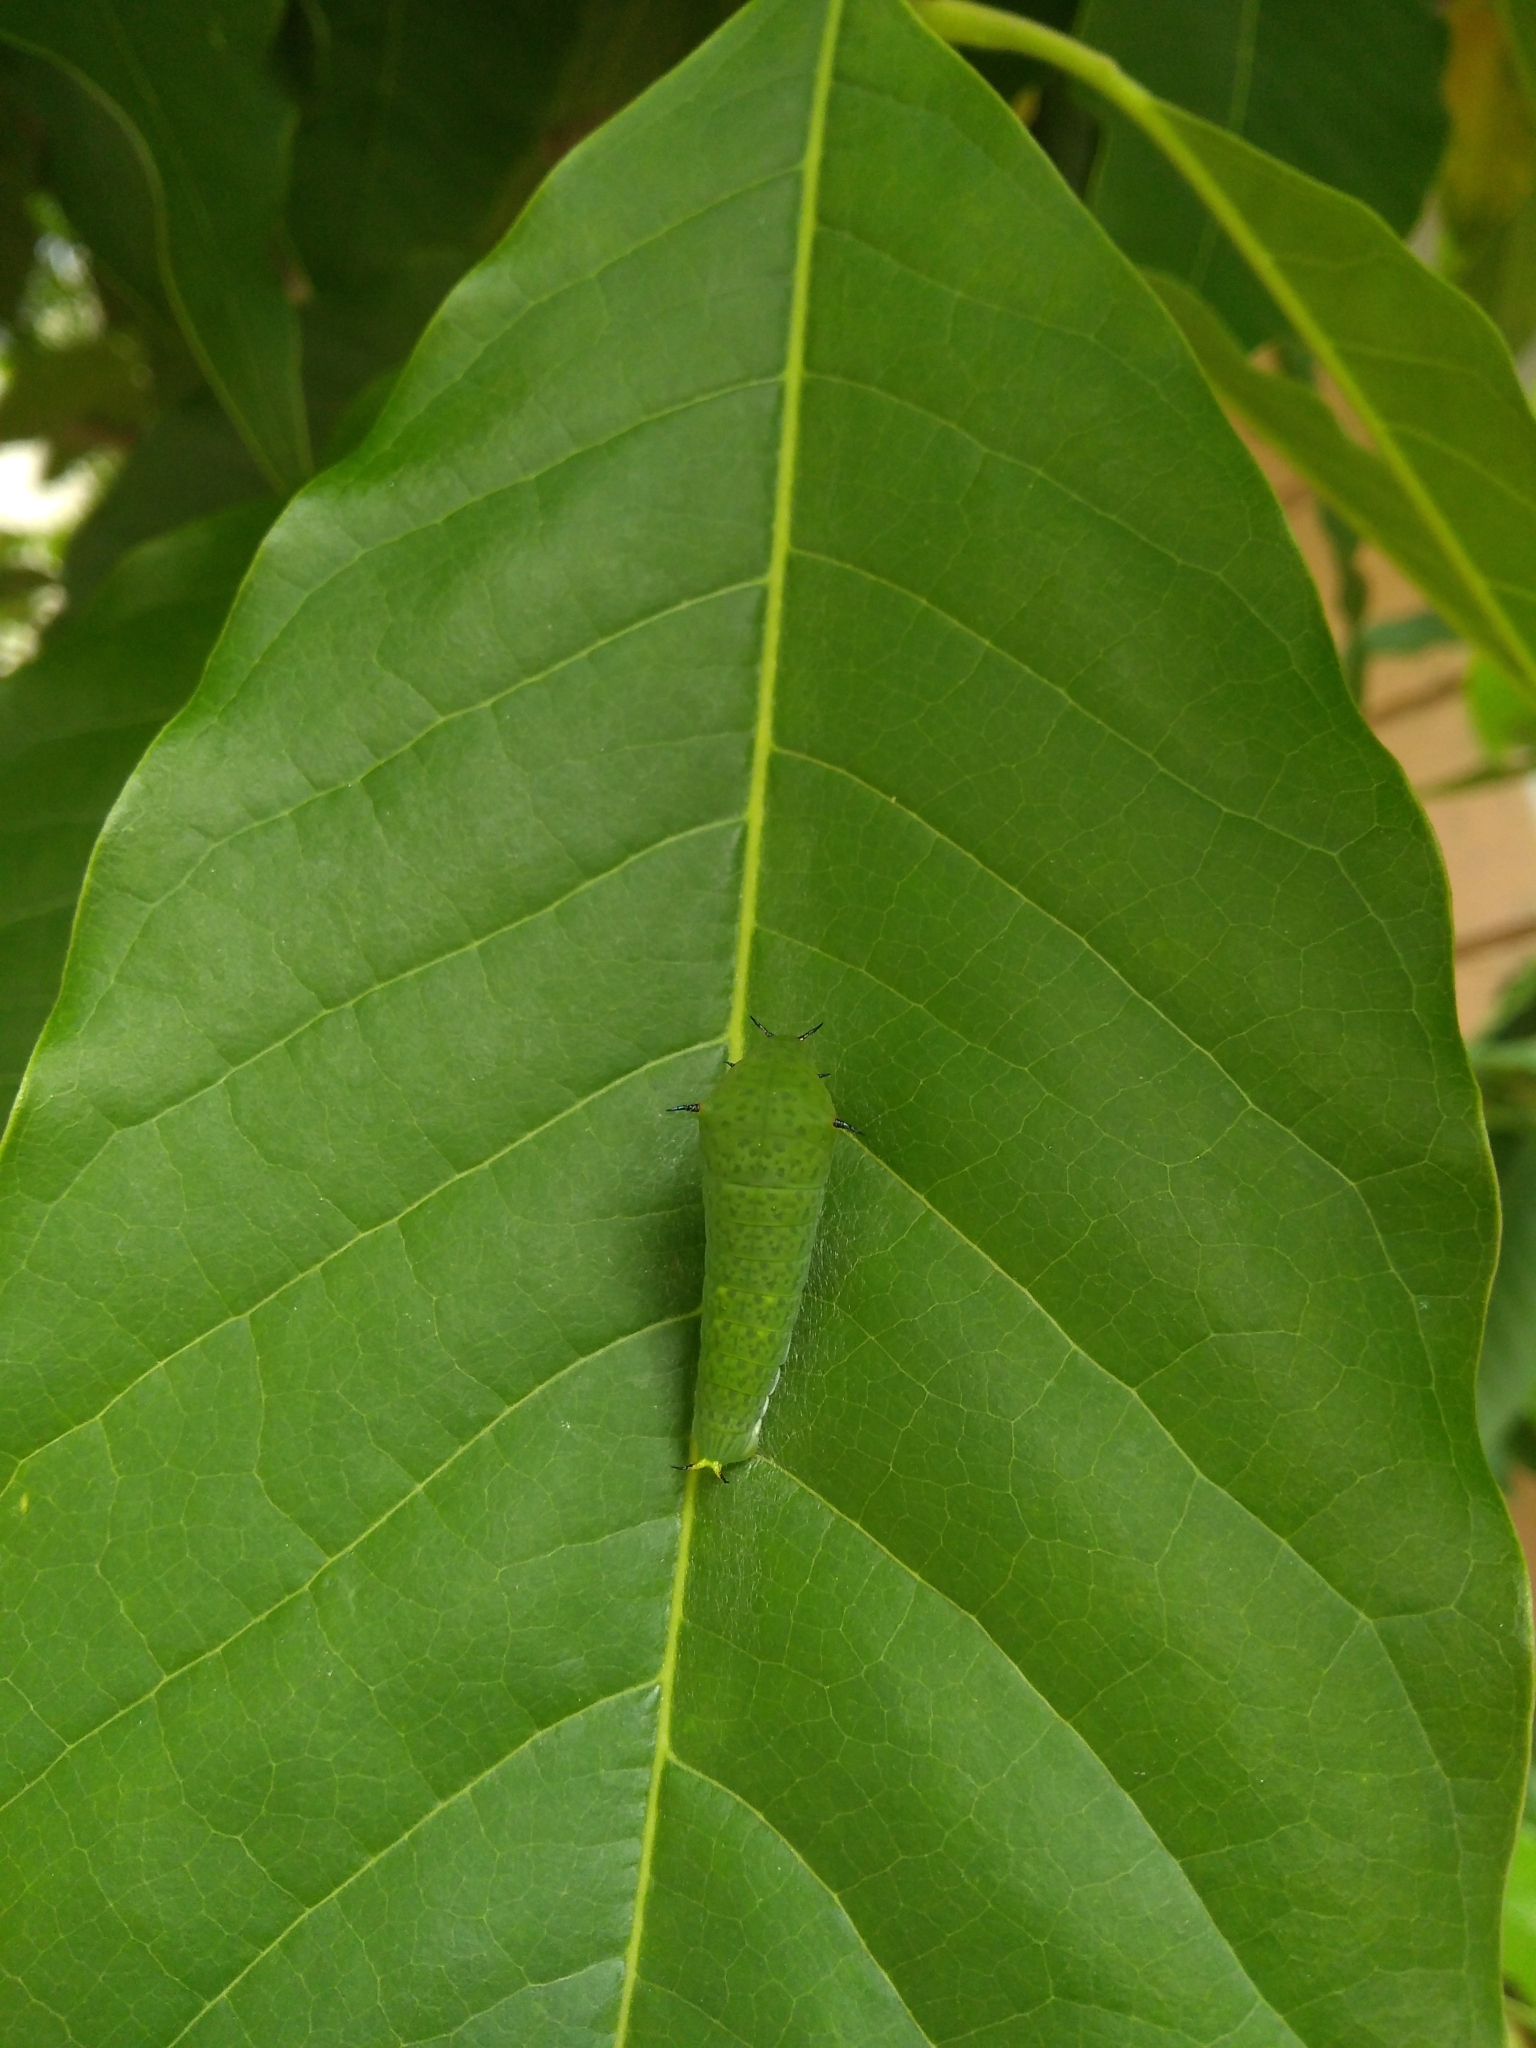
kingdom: Animalia
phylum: Arthropoda
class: Insecta
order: Lepidoptera
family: Papilionidae
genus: Graphium
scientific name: Graphium agamemnon
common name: Tailed jay
